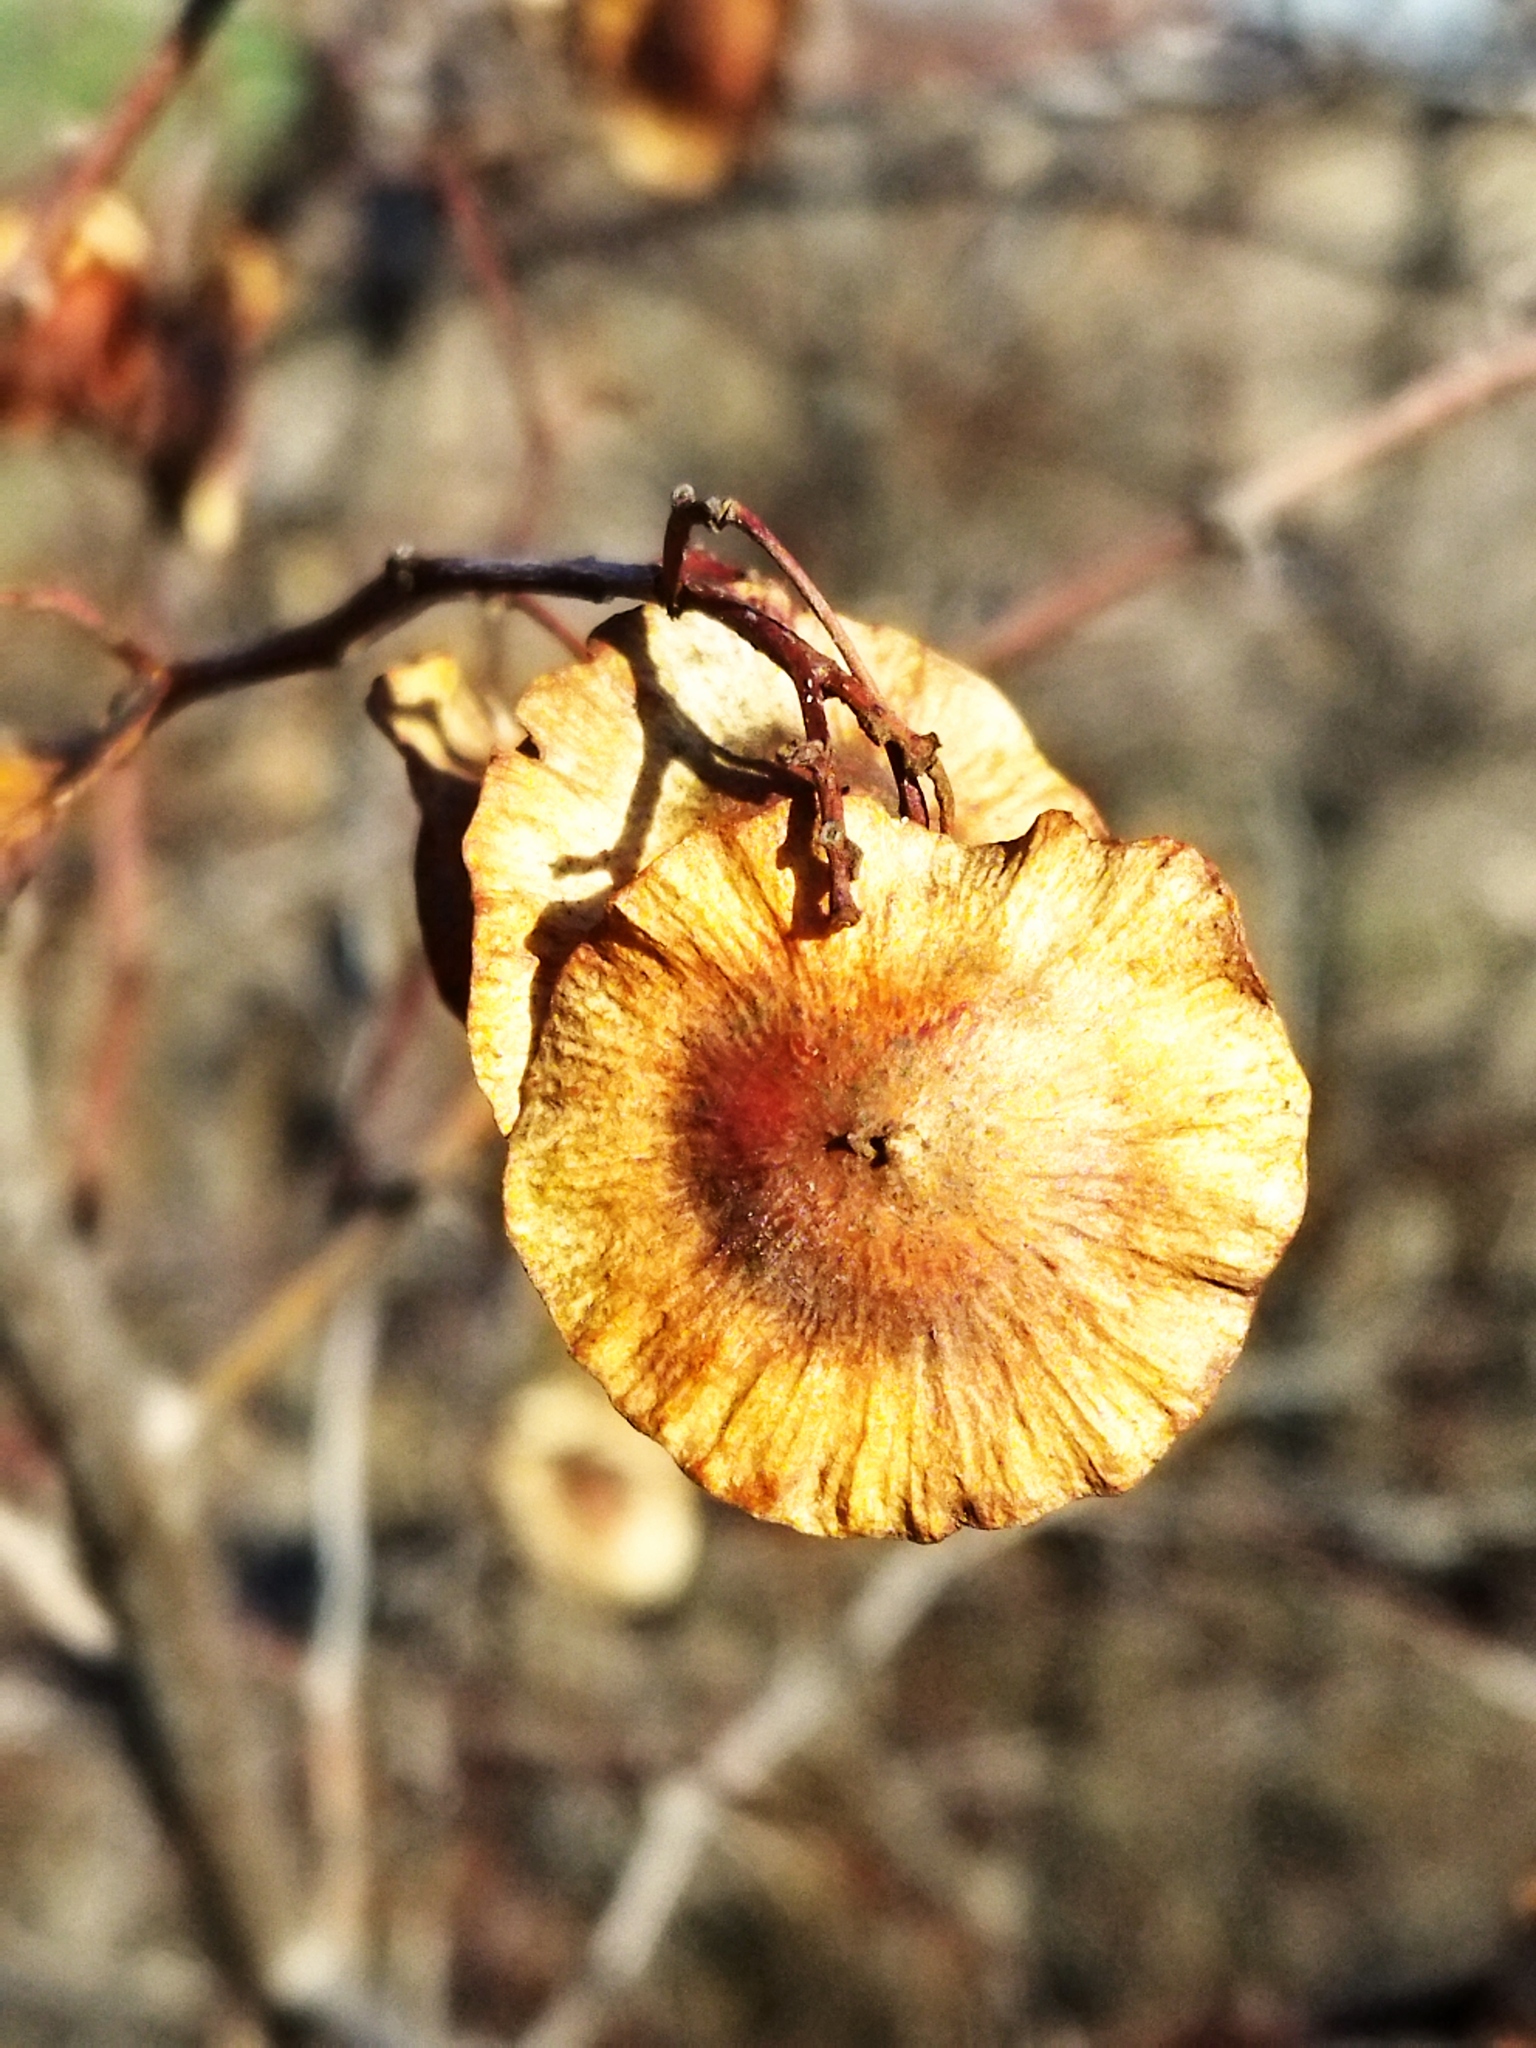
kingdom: Plantae
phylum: Tracheophyta
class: Magnoliopsida
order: Rosales
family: Rhamnaceae
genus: Paliurus
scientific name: Paliurus spina-christi
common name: Jeruselem thorn
